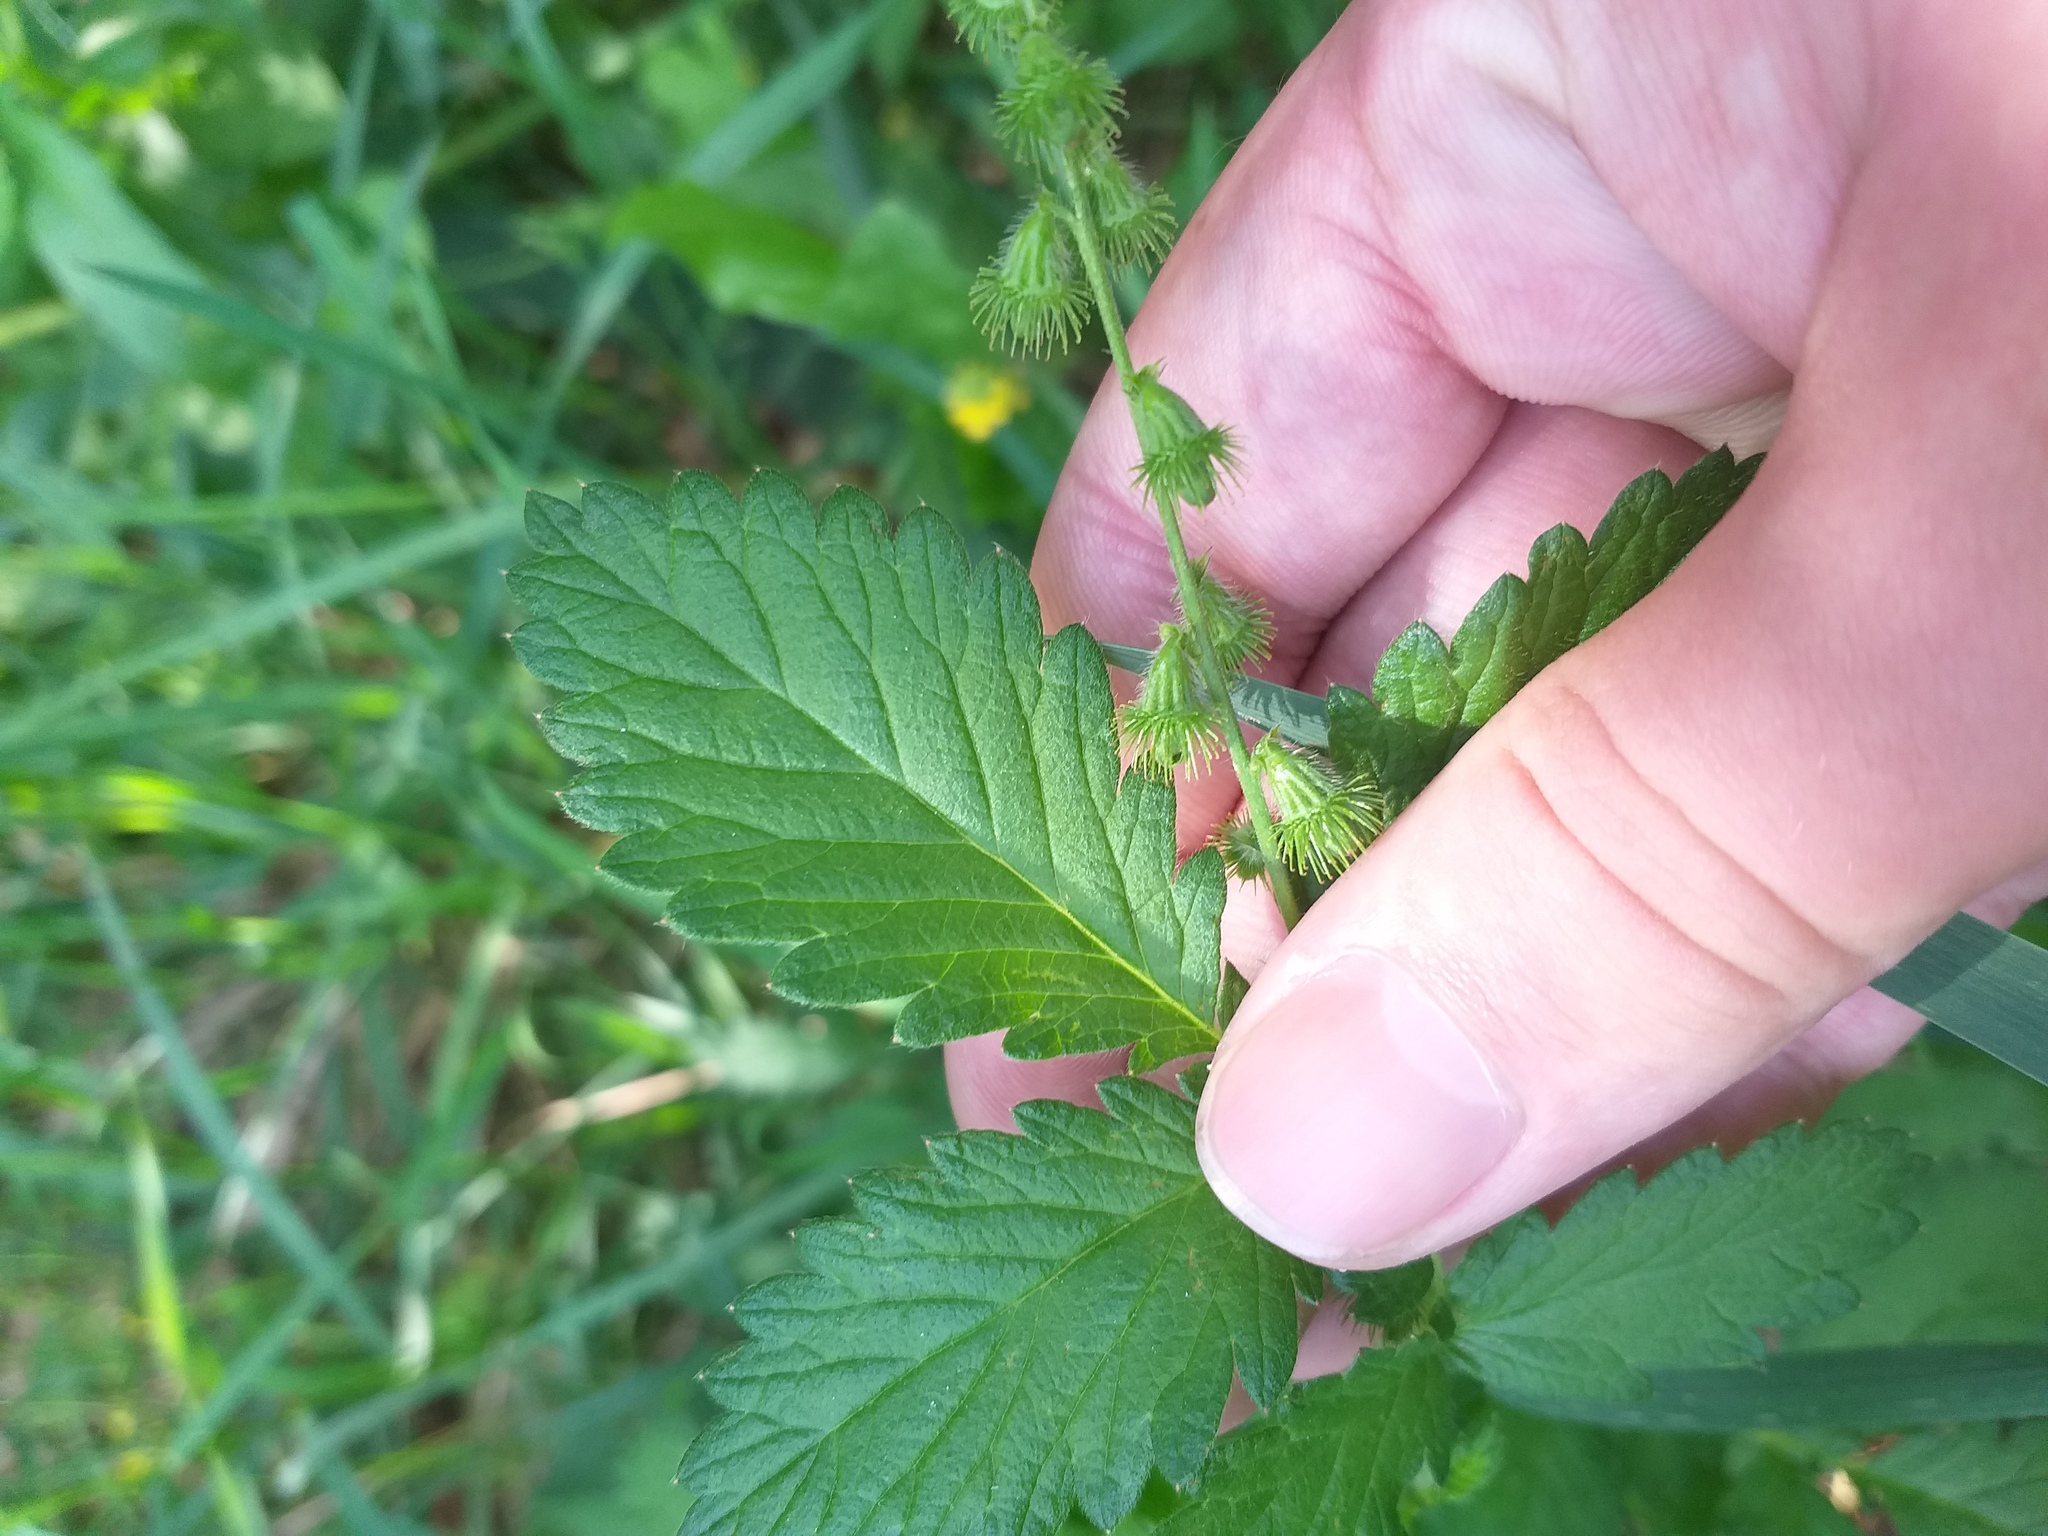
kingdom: Plantae
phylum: Tracheophyta
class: Magnoliopsida
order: Rosales
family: Rosaceae
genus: Agrimonia
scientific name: Agrimonia eupatoria
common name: Agrimony
